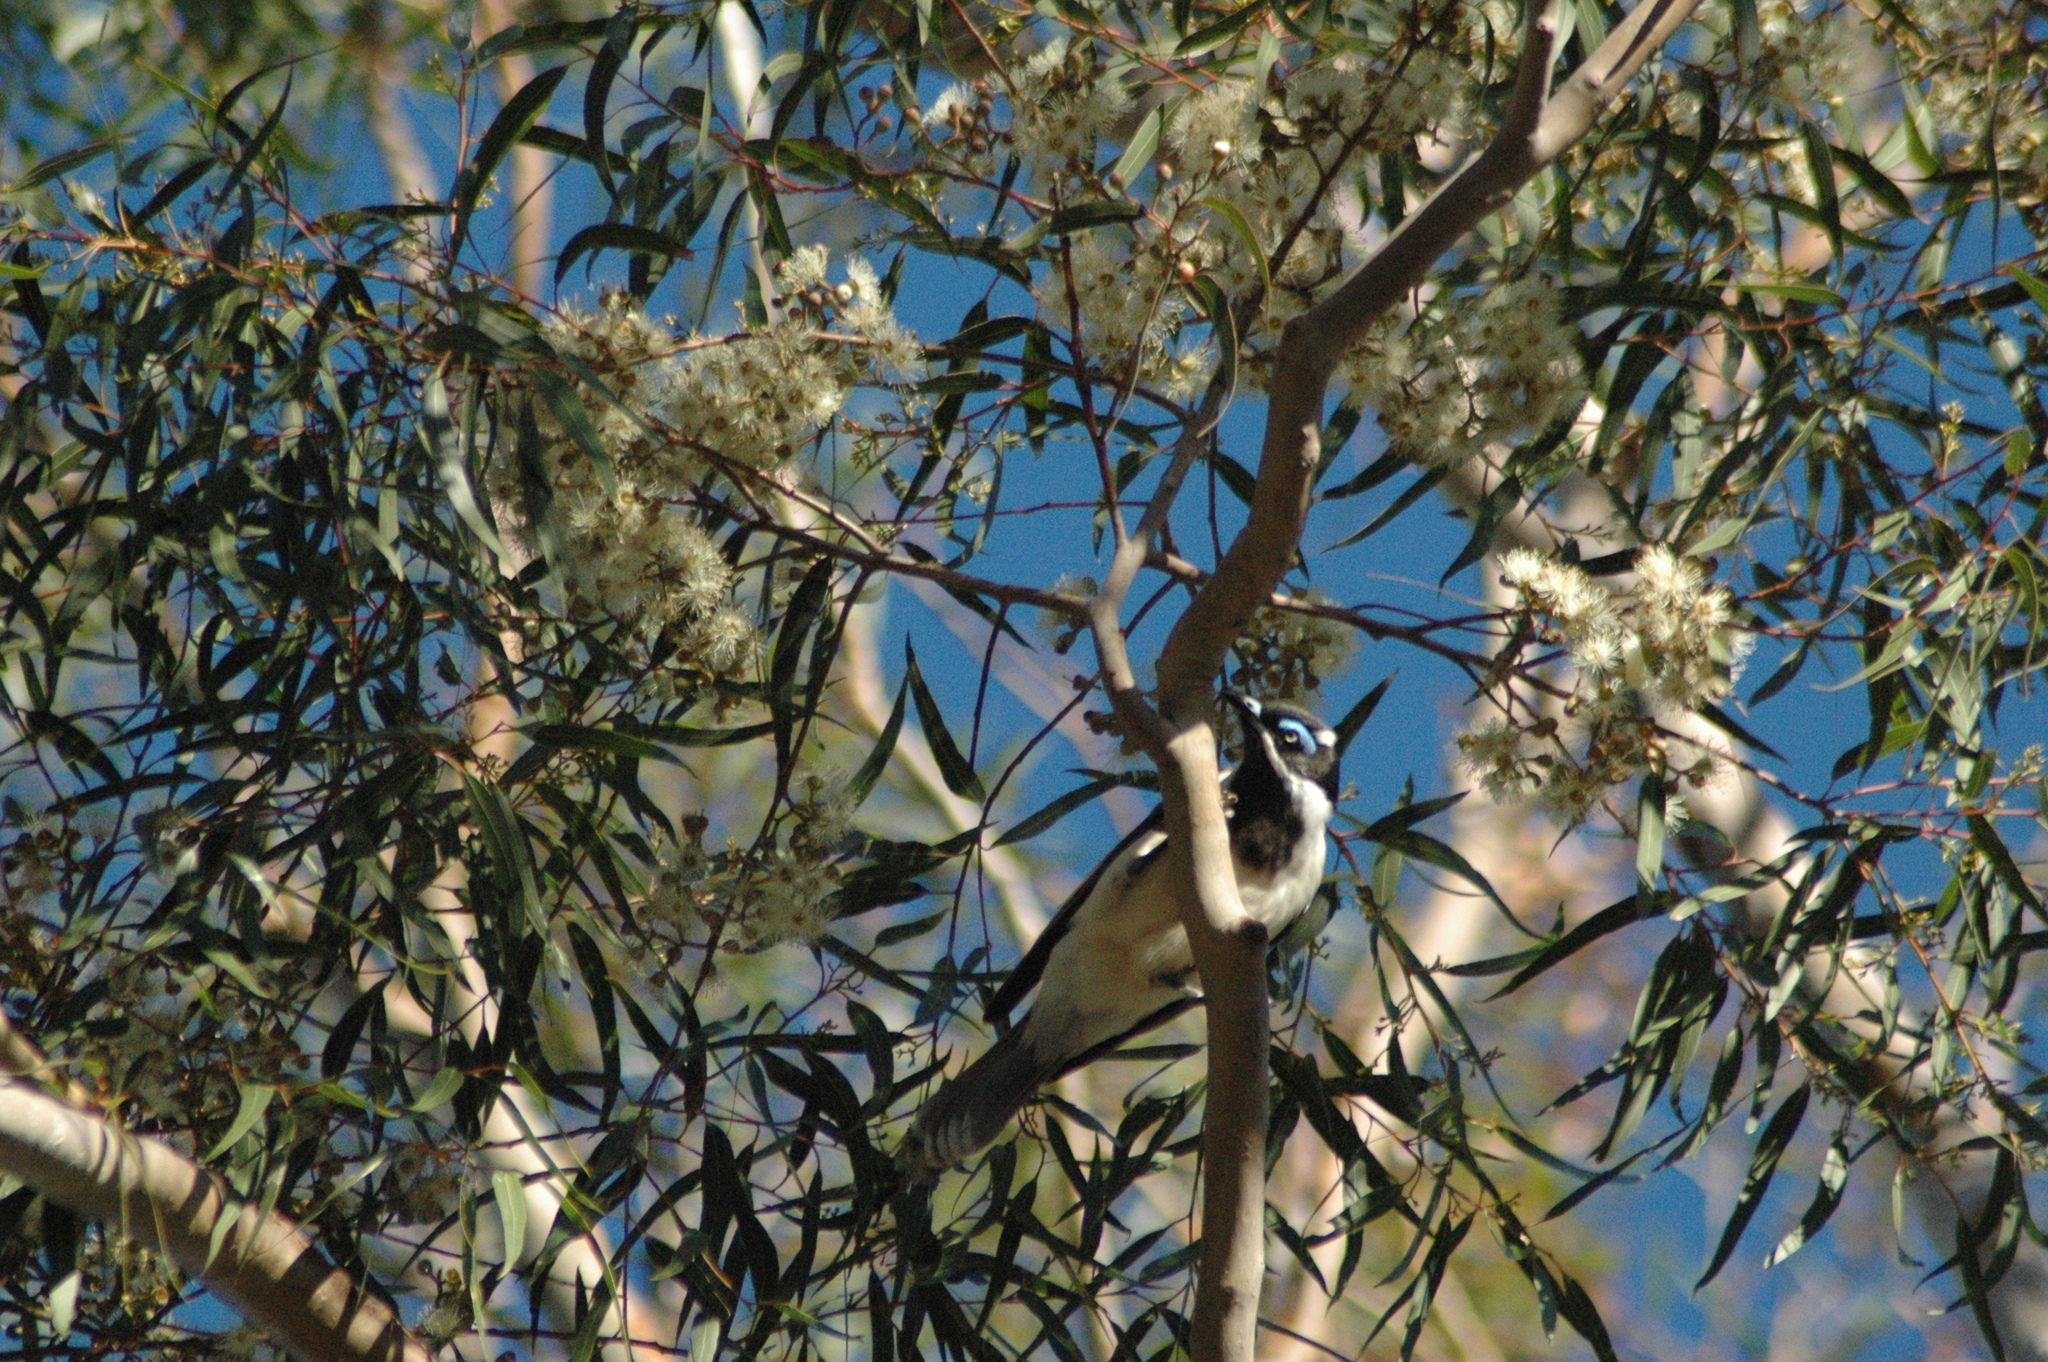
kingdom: Animalia
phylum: Chordata
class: Aves
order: Passeriformes
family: Meliphagidae
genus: Entomyzon
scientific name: Entomyzon cyanotis
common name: Blue-faced honeyeater
